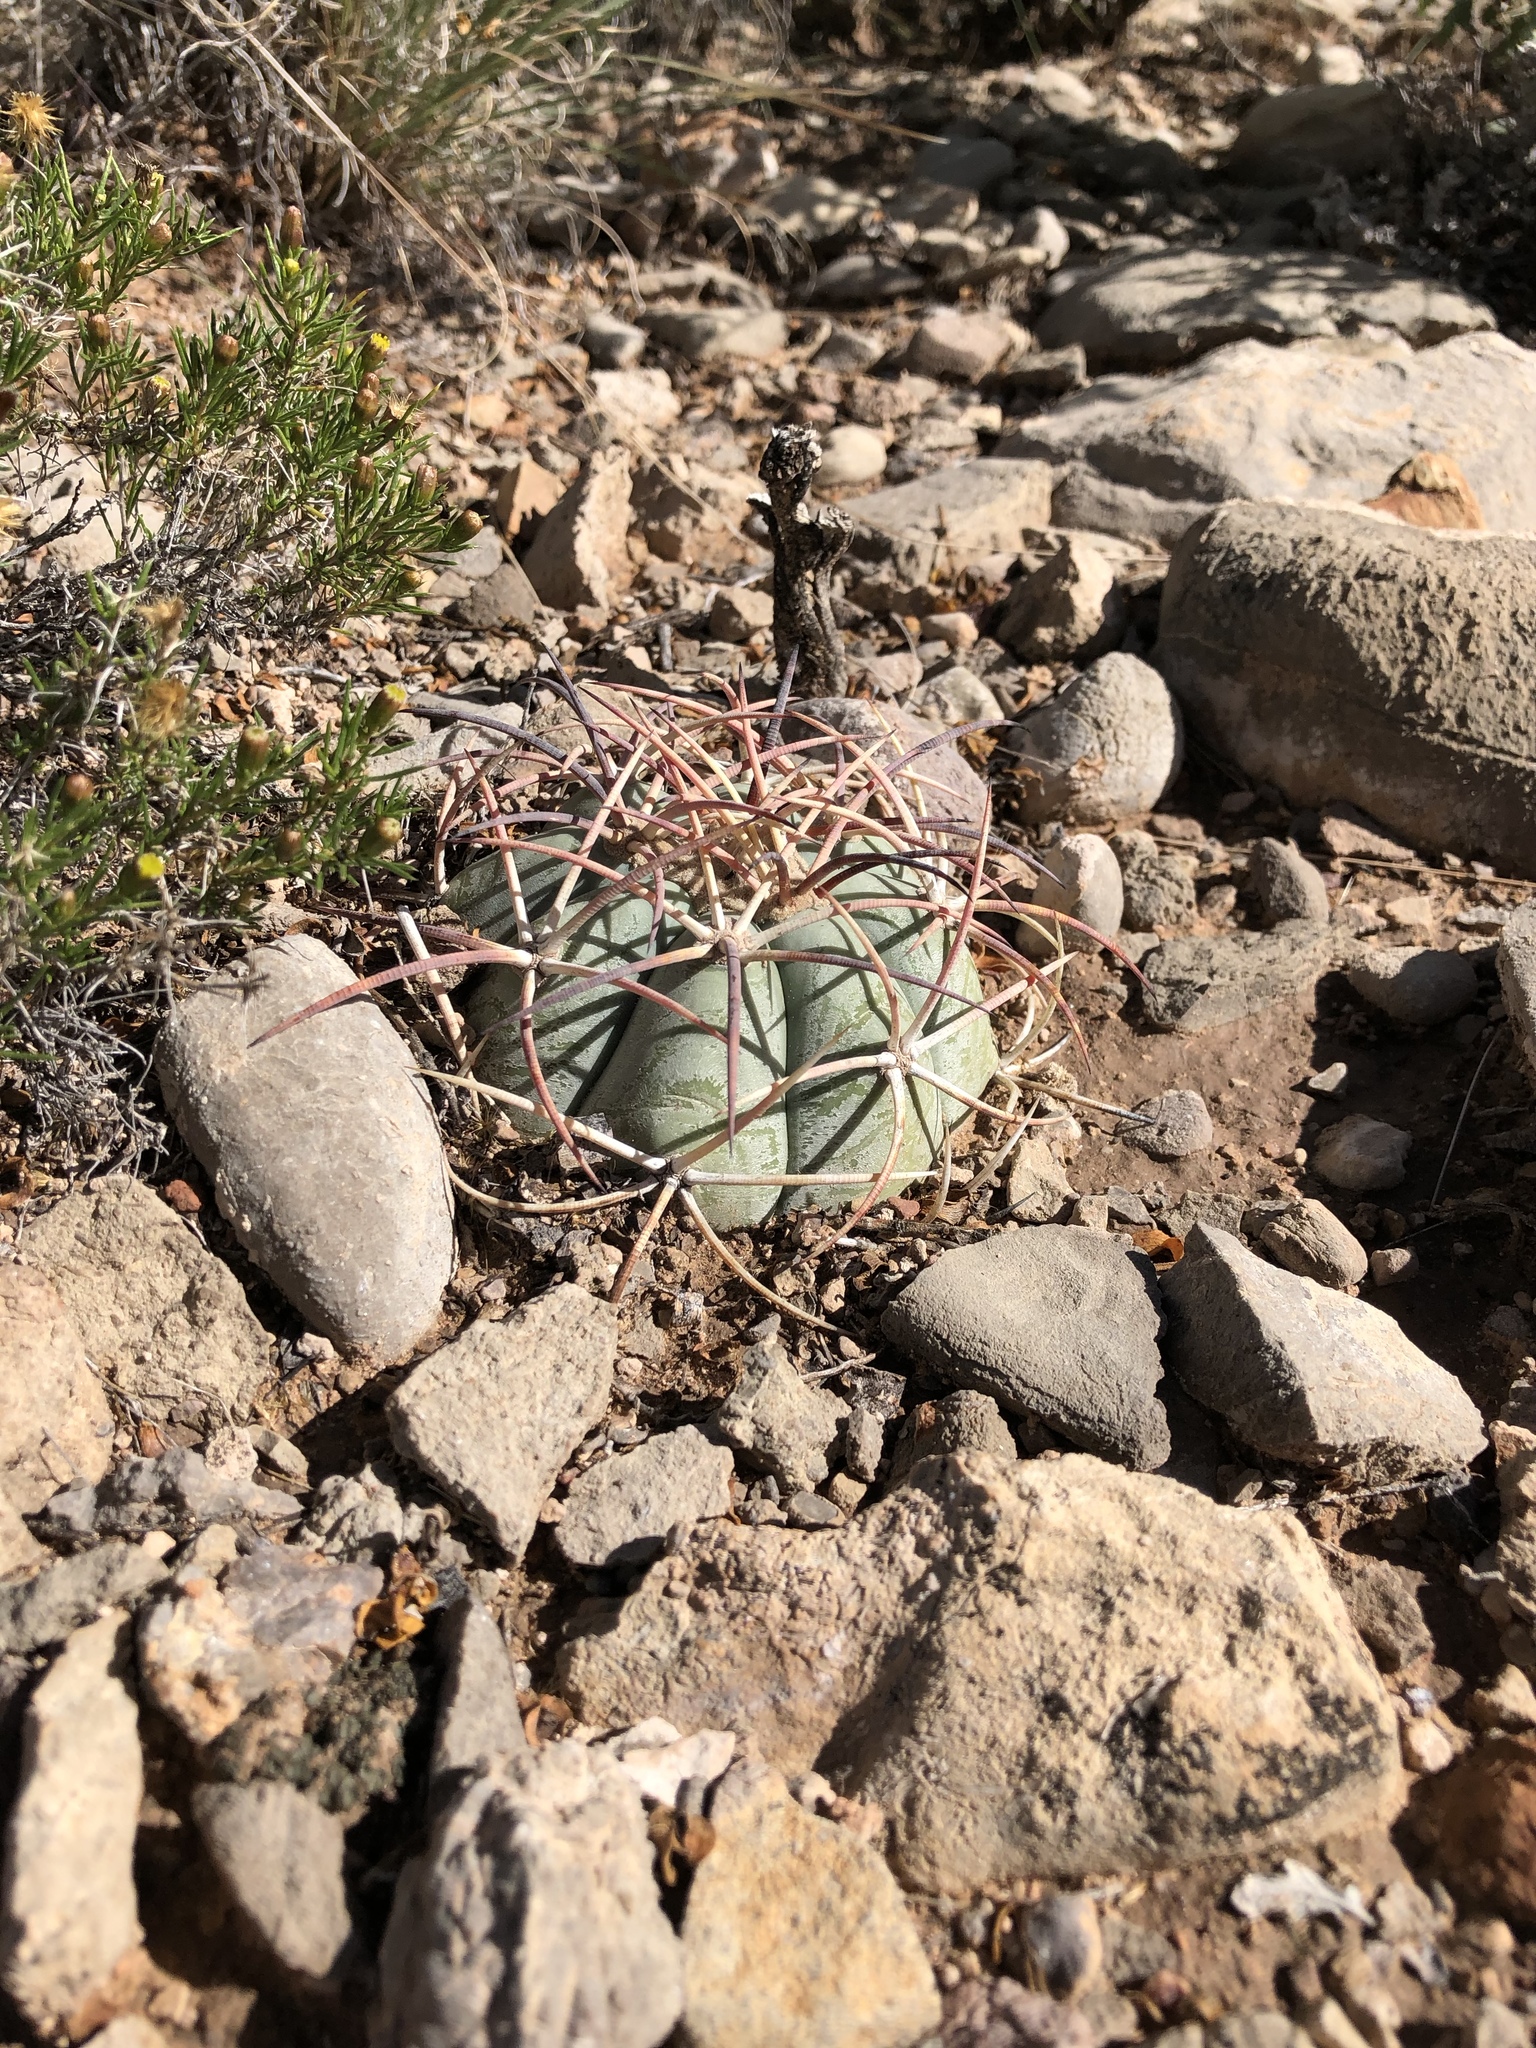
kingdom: Plantae
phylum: Tracheophyta
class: Magnoliopsida
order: Caryophyllales
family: Cactaceae
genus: Echinocactus
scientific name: Echinocactus horizonthalonius
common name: Devilshead
